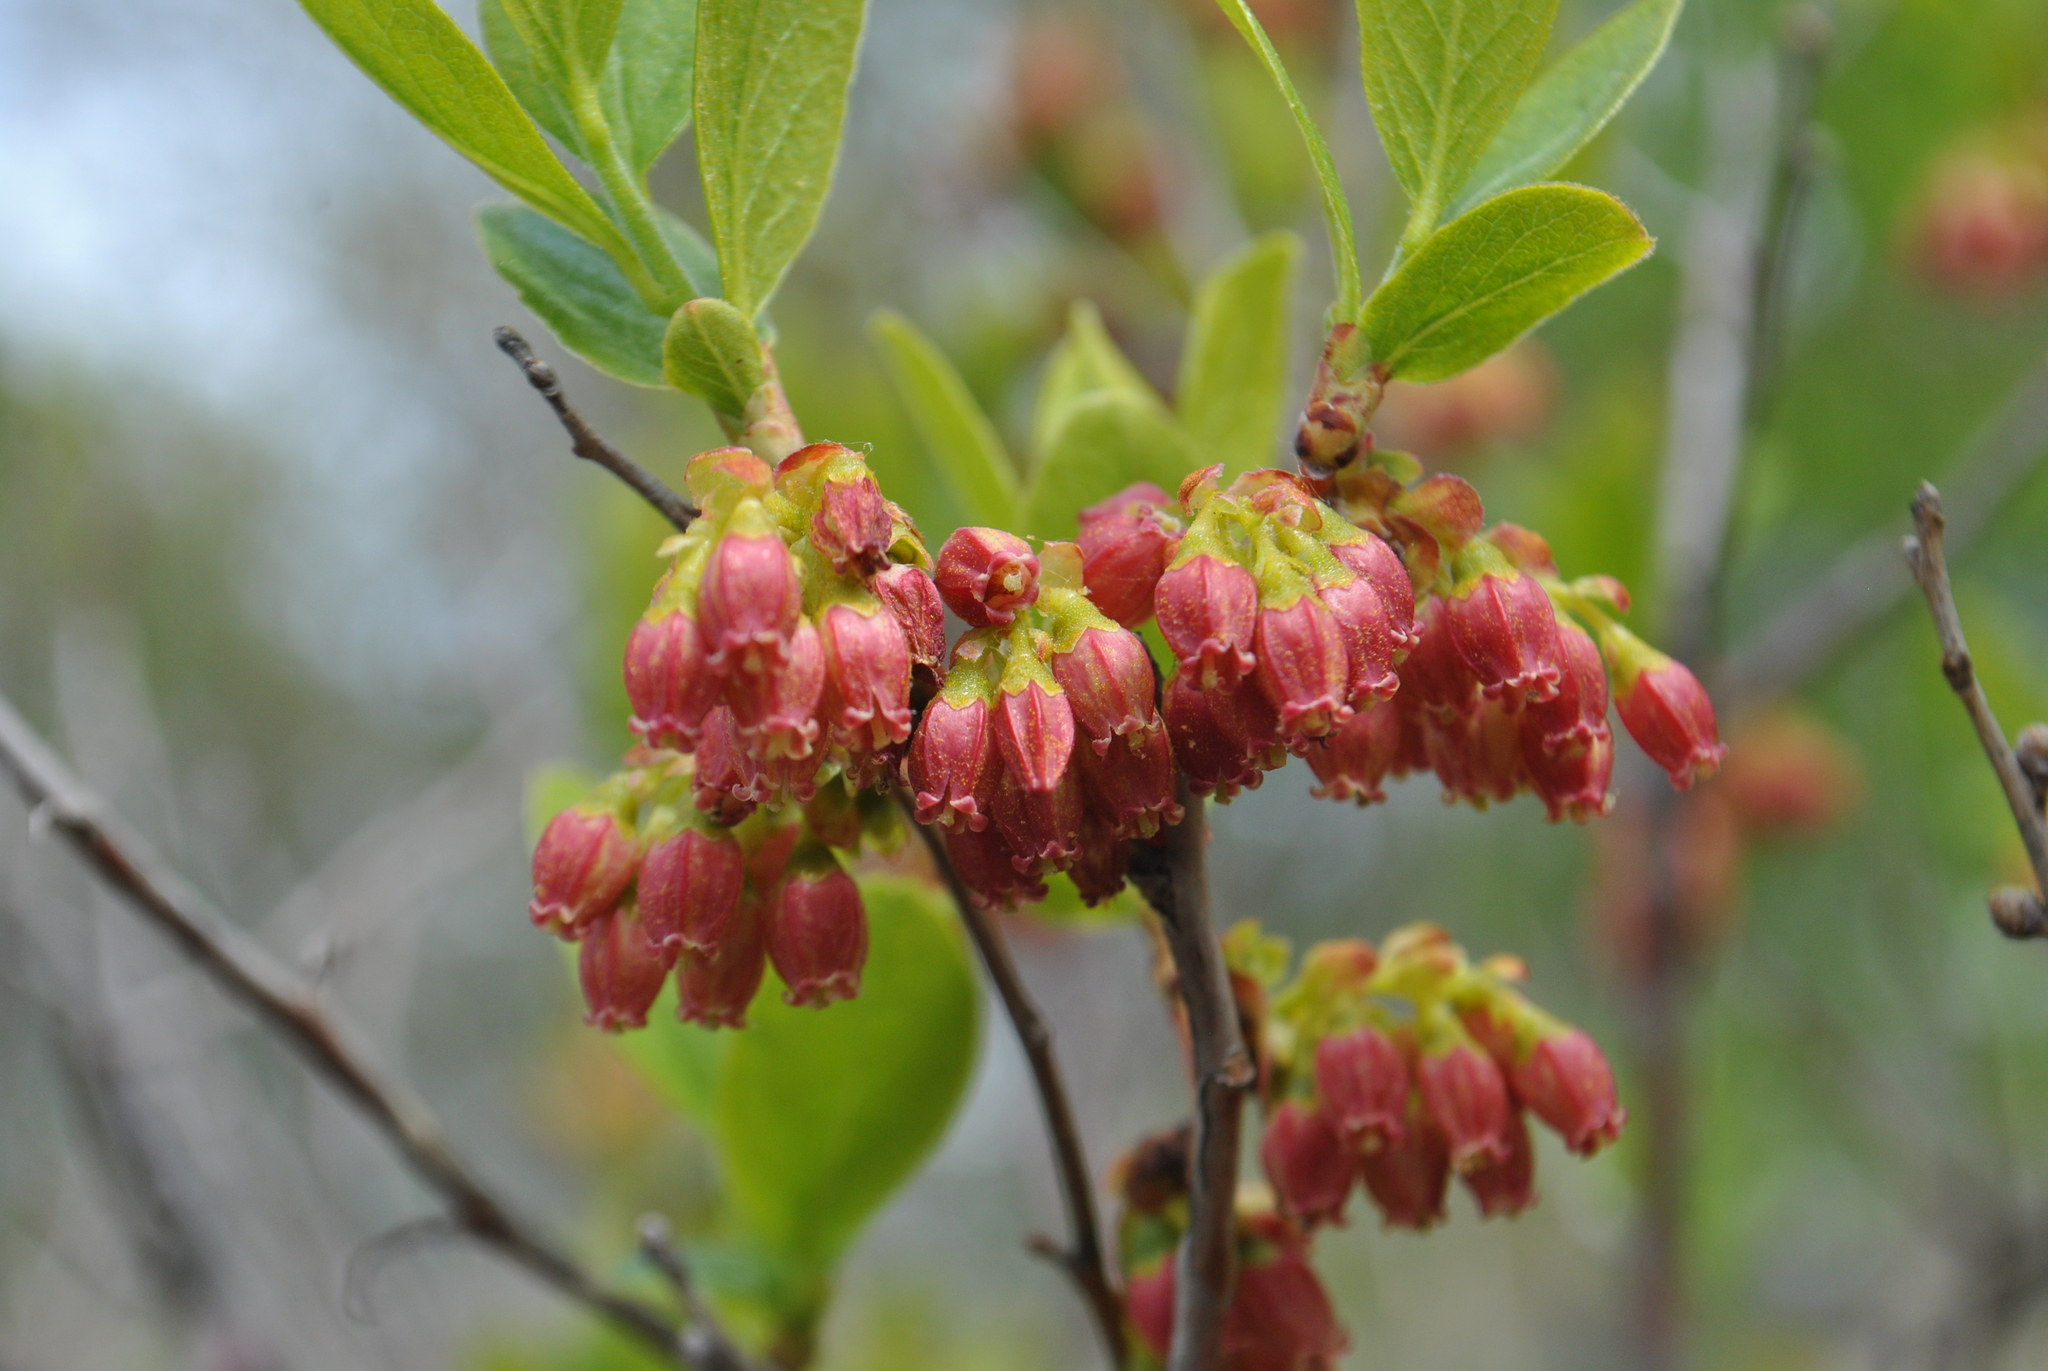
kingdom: Plantae
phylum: Tracheophyta
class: Magnoliopsida
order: Ericales
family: Ericaceae
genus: Gaylussacia
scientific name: Gaylussacia baccata
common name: Black huckleberry
